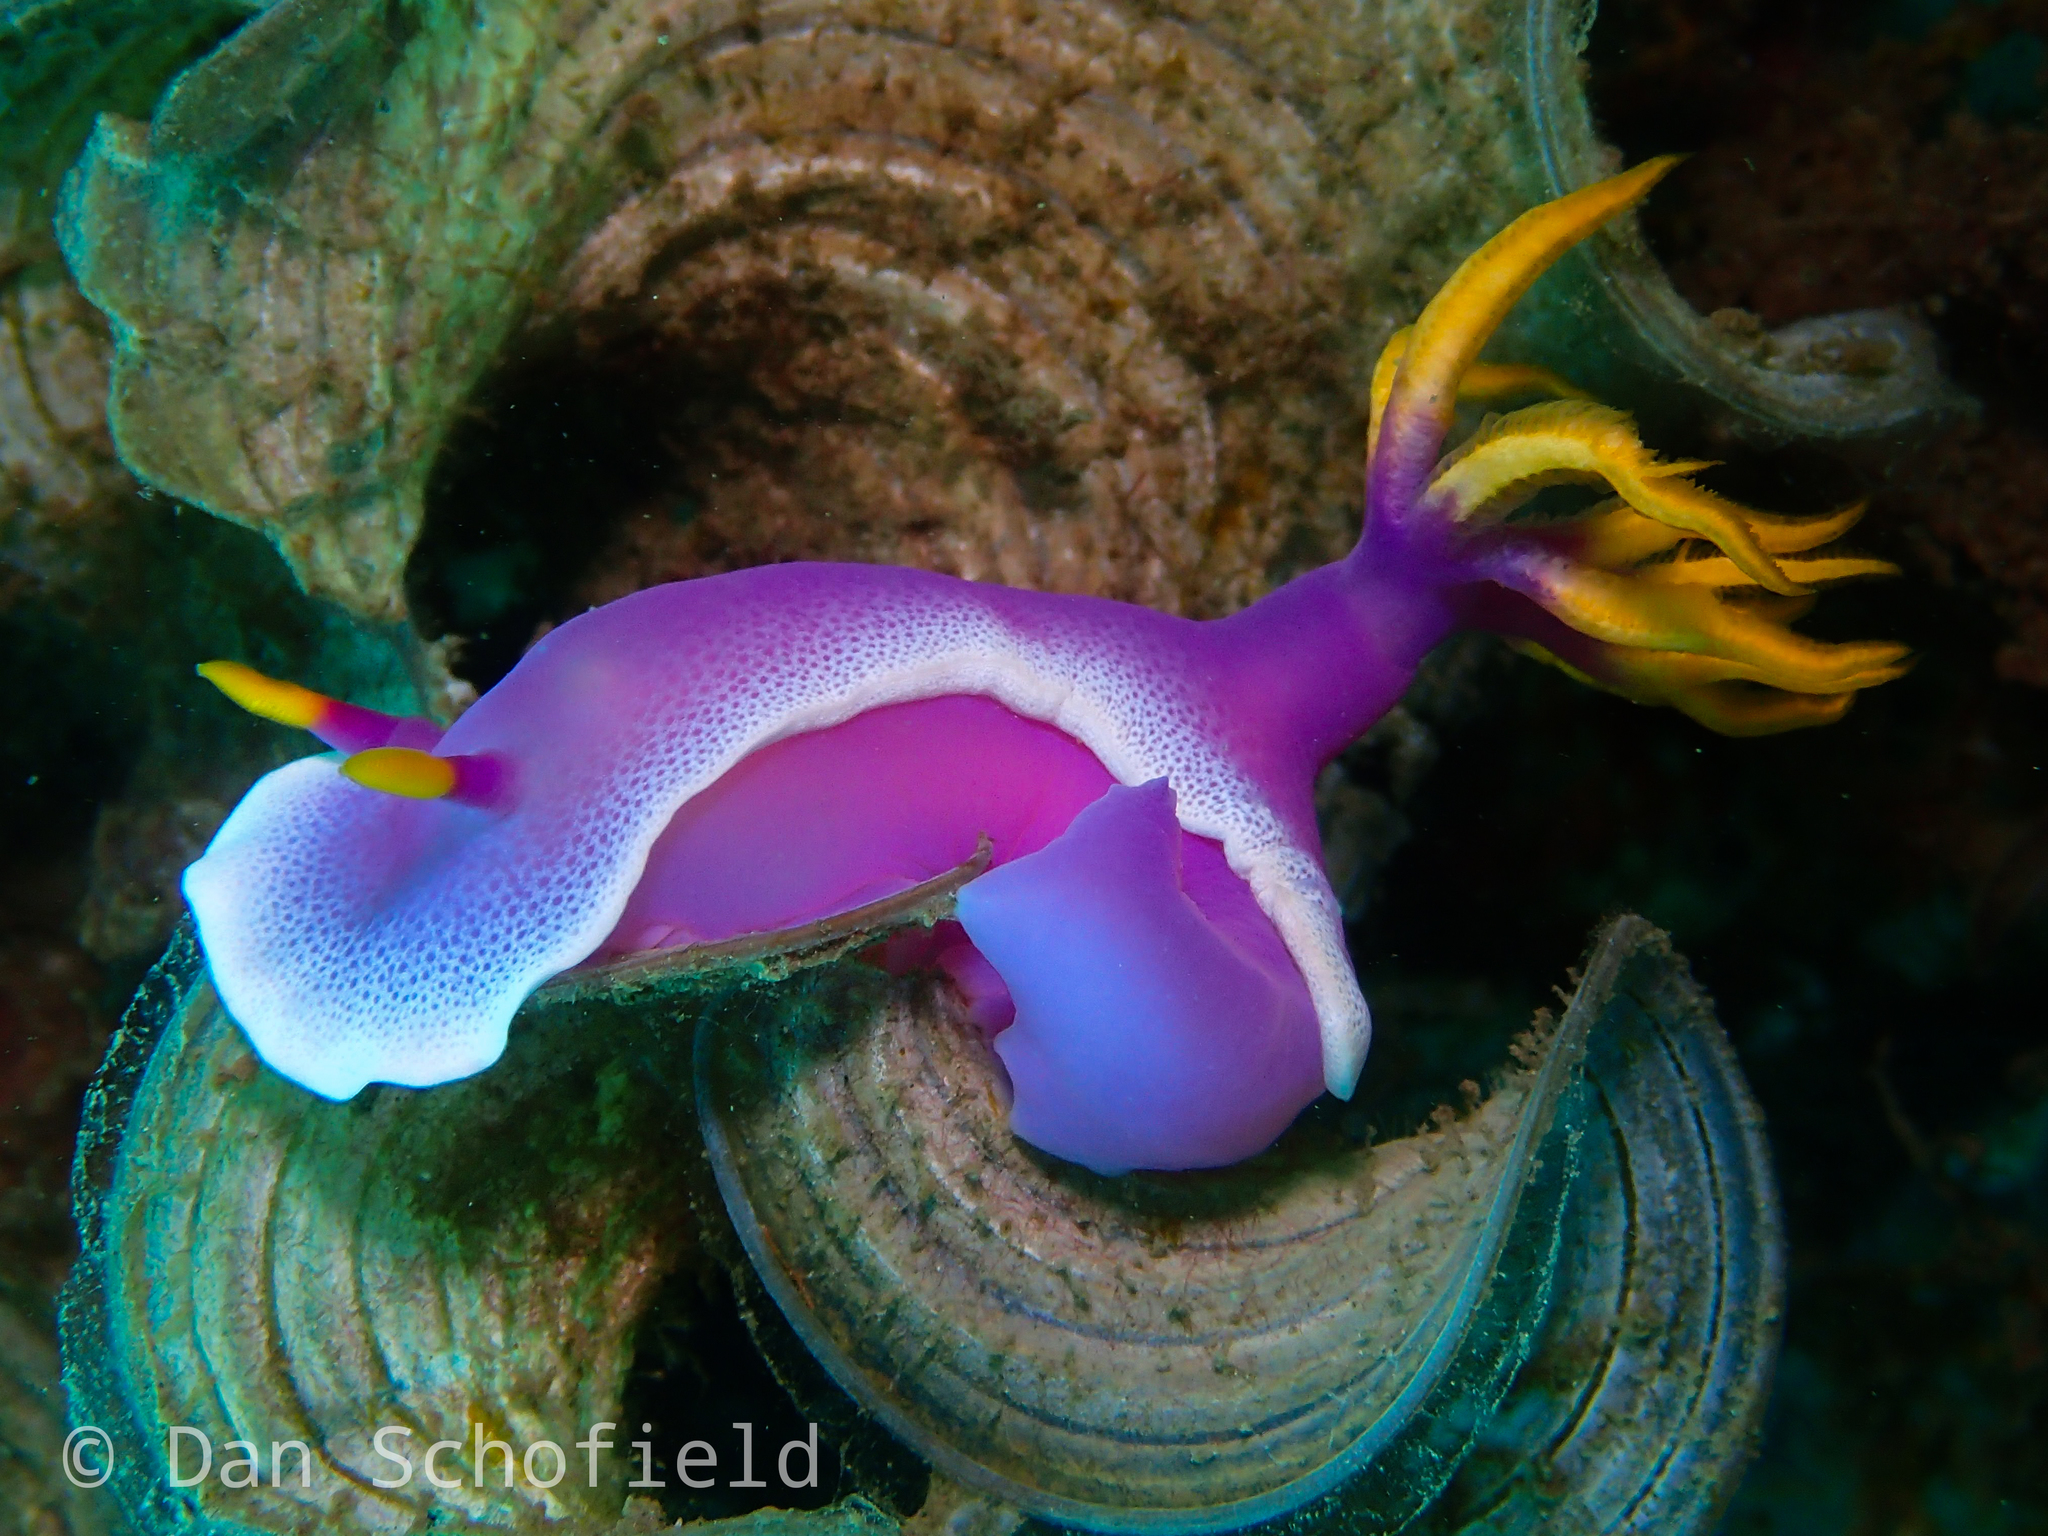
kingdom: Animalia
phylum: Mollusca
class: Gastropoda
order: Nudibranchia
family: Chromodorididae
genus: Hypselodoris
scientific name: Hypselodoris apolegma
